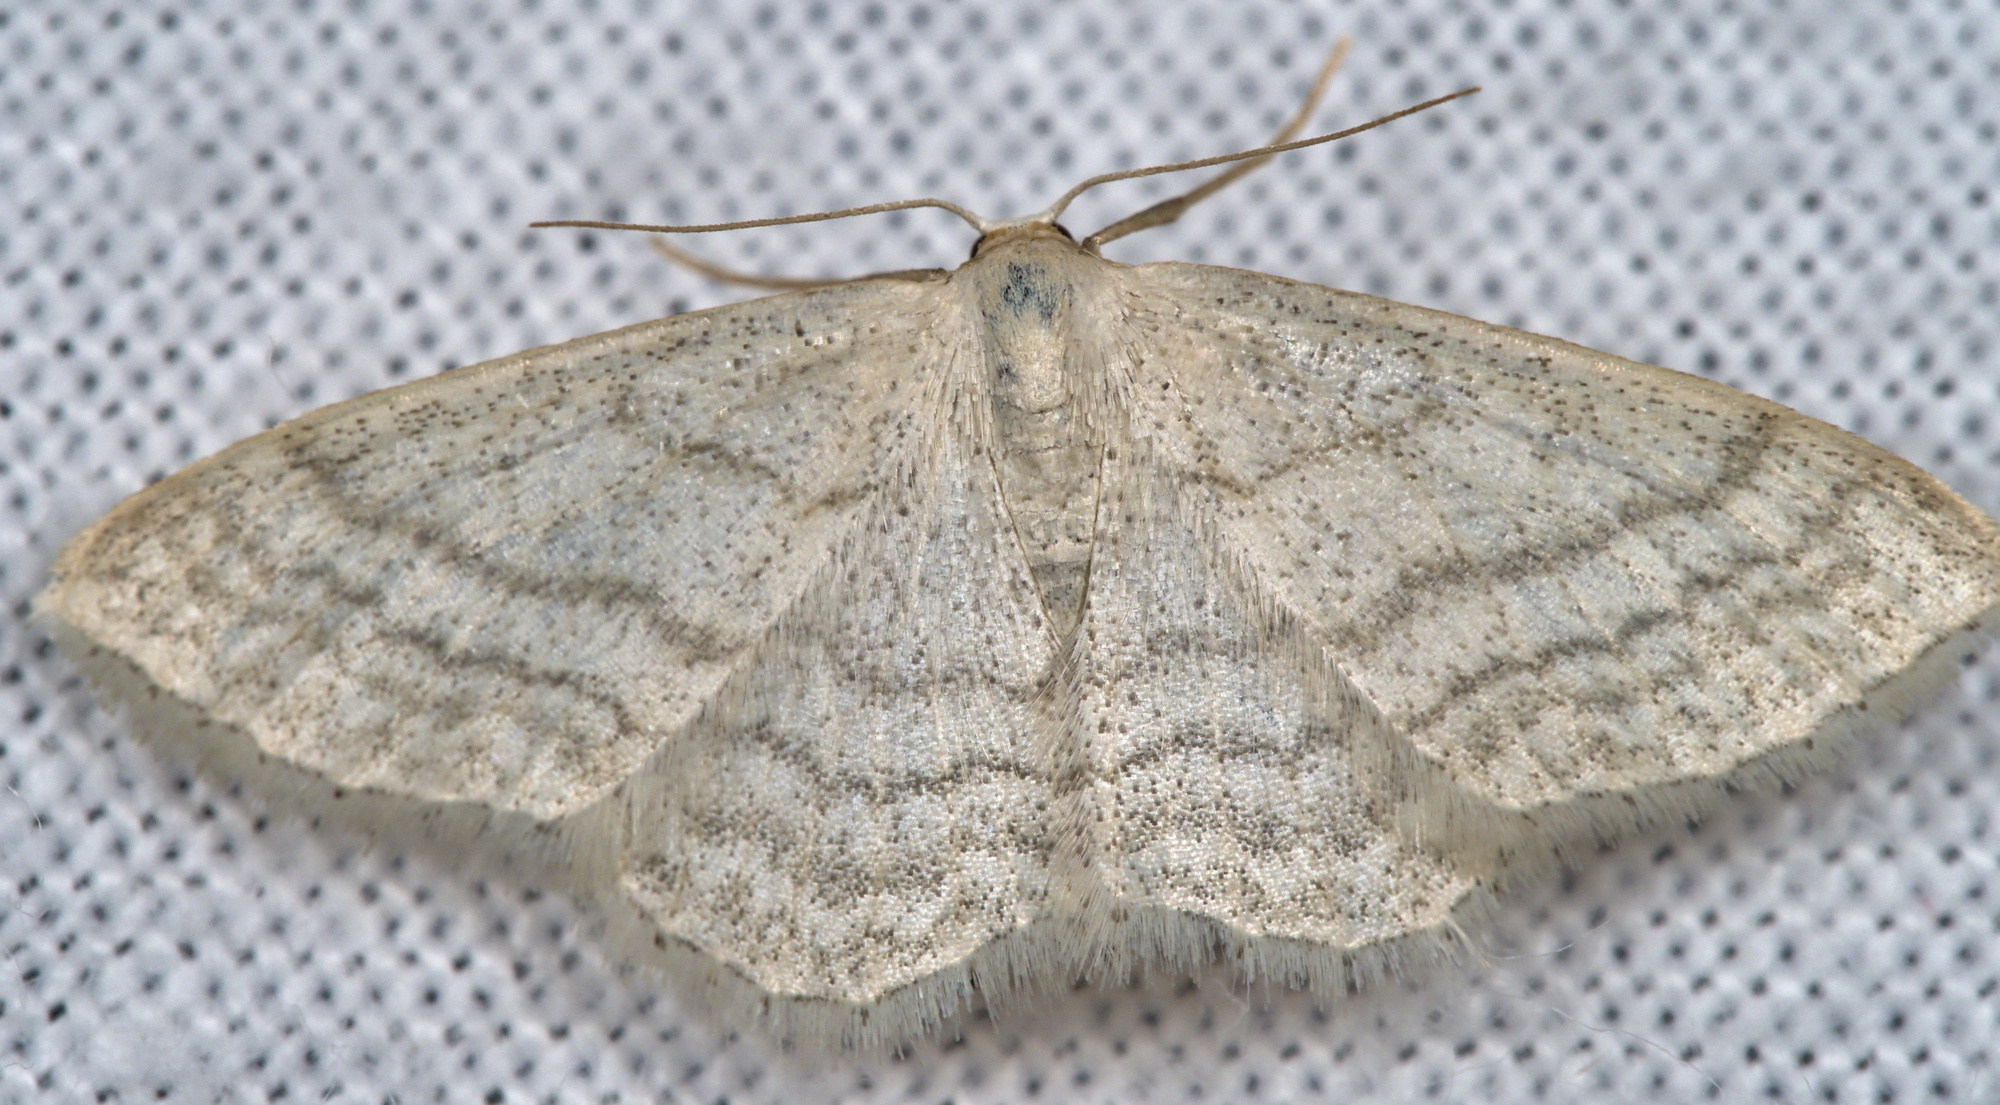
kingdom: Animalia
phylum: Arthropoda
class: Insecta
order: Lepidoptera
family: Geometridae
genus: Idaea
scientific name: Idaea subsericeata
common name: Satin wave
